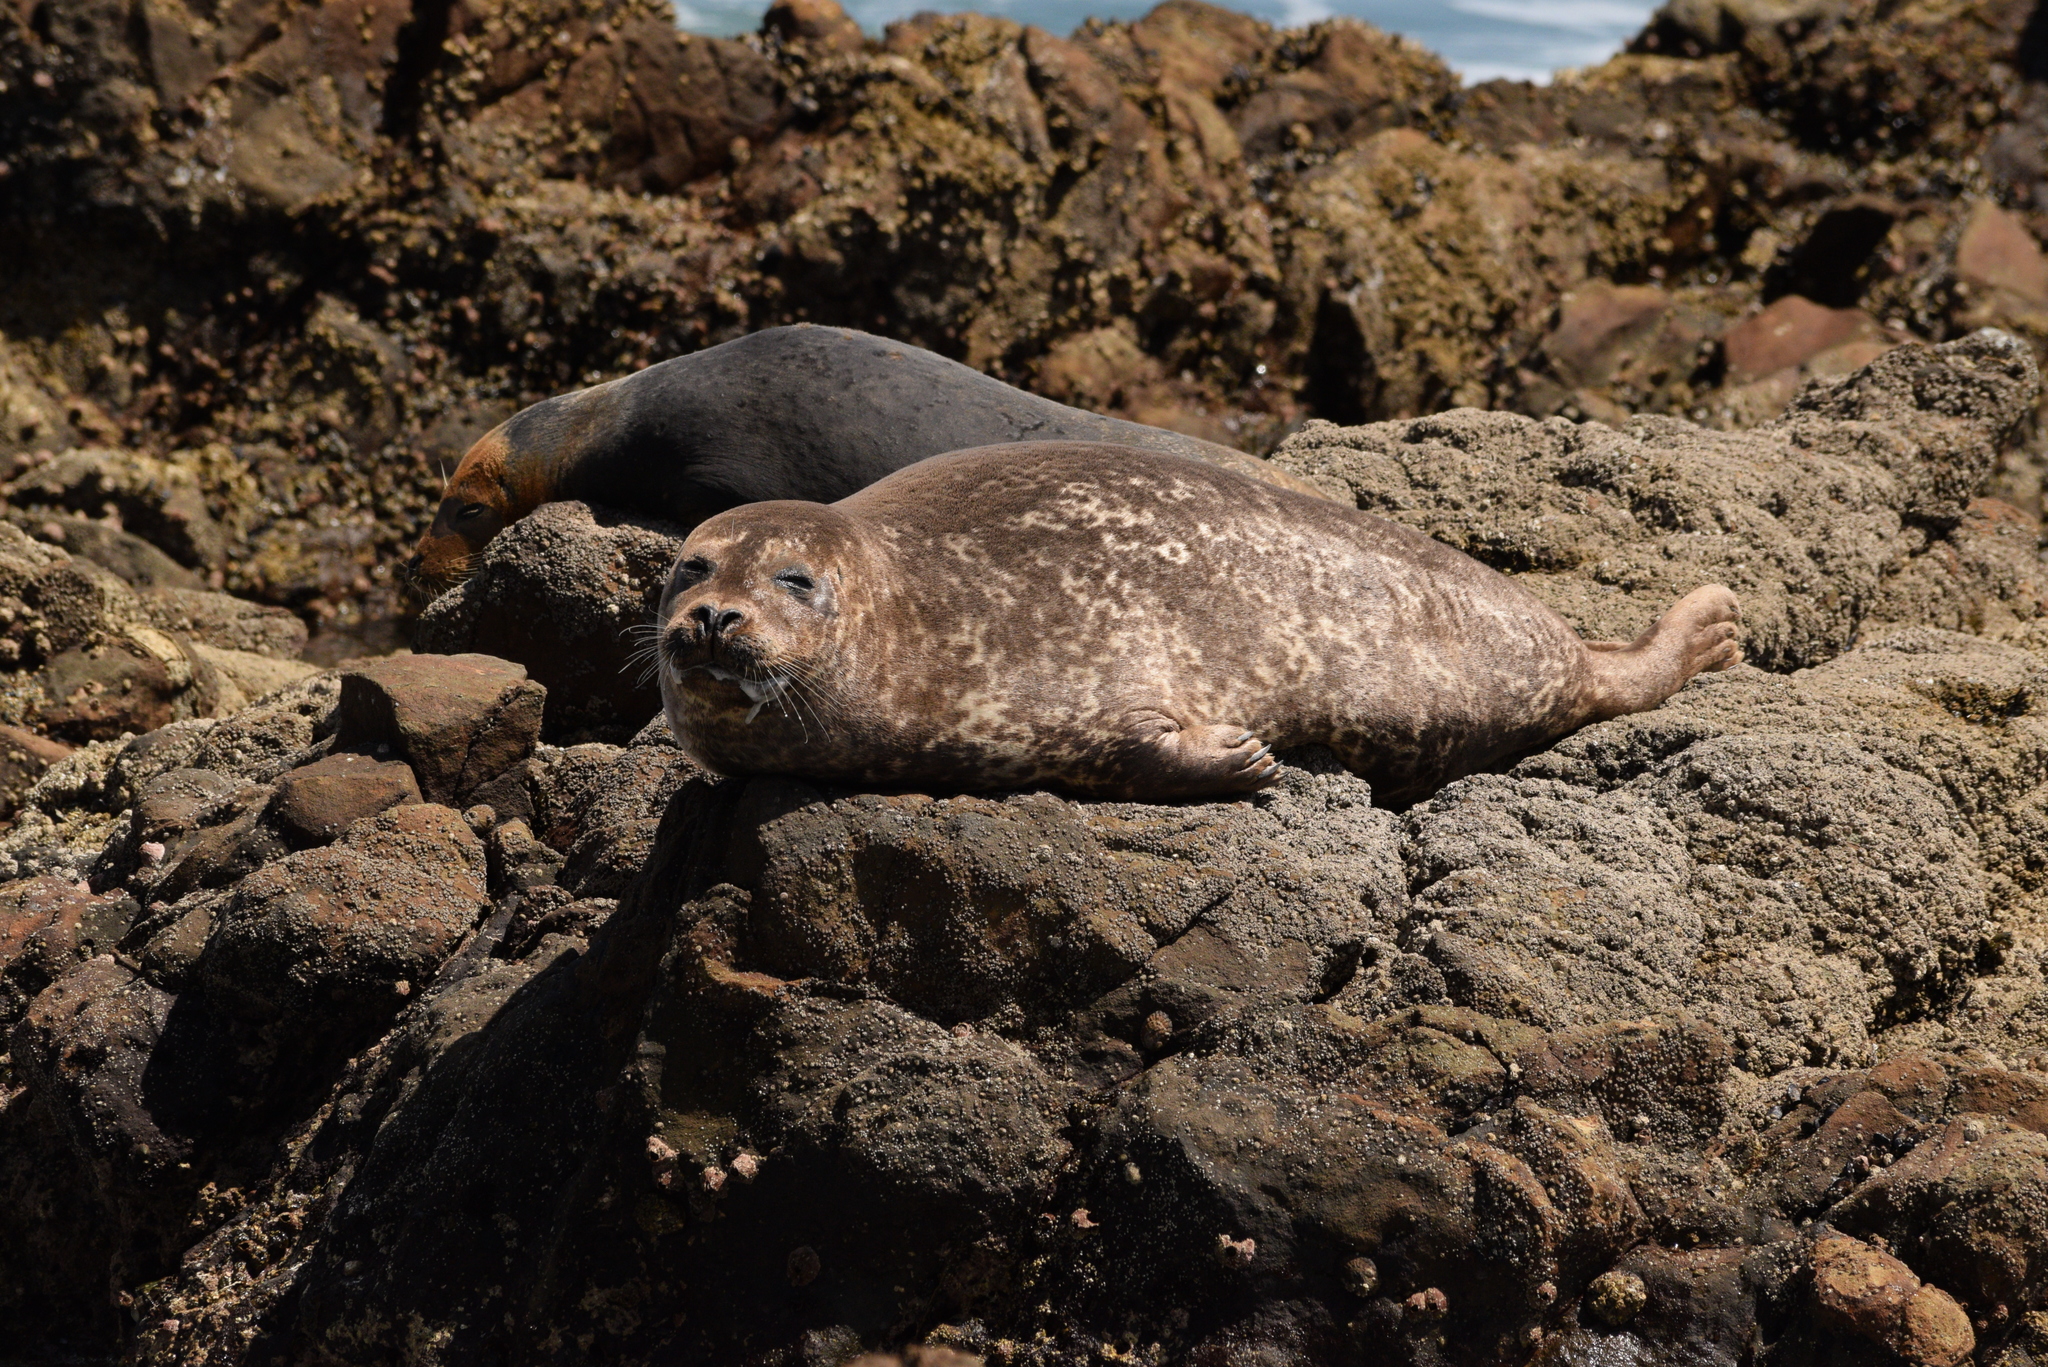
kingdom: Animalia
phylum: Chordata
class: Mammalia
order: Carnivora
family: Phocidae
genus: Phoca
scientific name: Phoca vitulina
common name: Harbor seal
